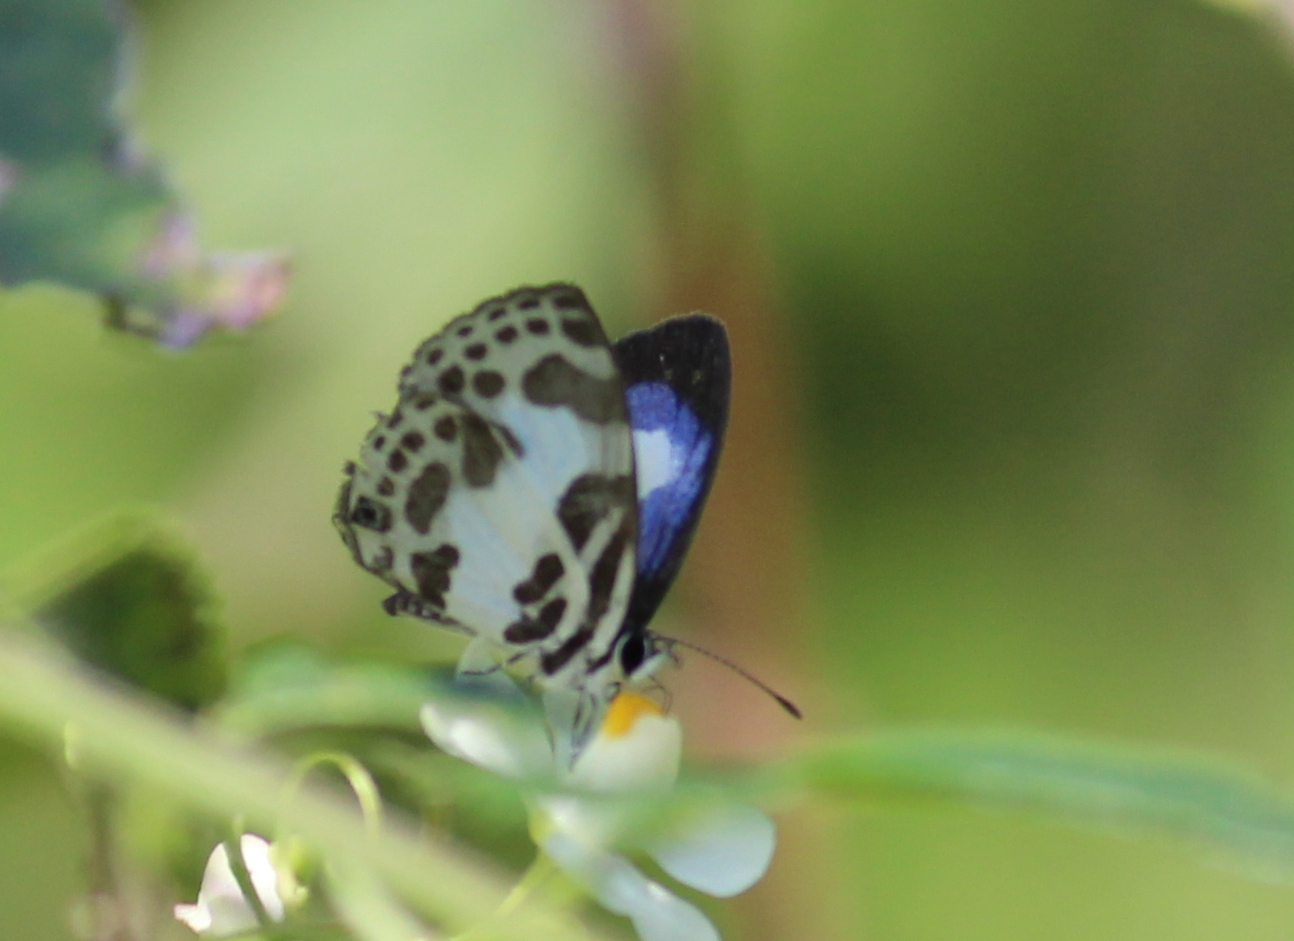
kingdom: Animalia
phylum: Arthropoda
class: Insecta
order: Lepidoptera
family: Lycaenidae
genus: Discolampa
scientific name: Discolampa ethion
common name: Banded blue pierrot
